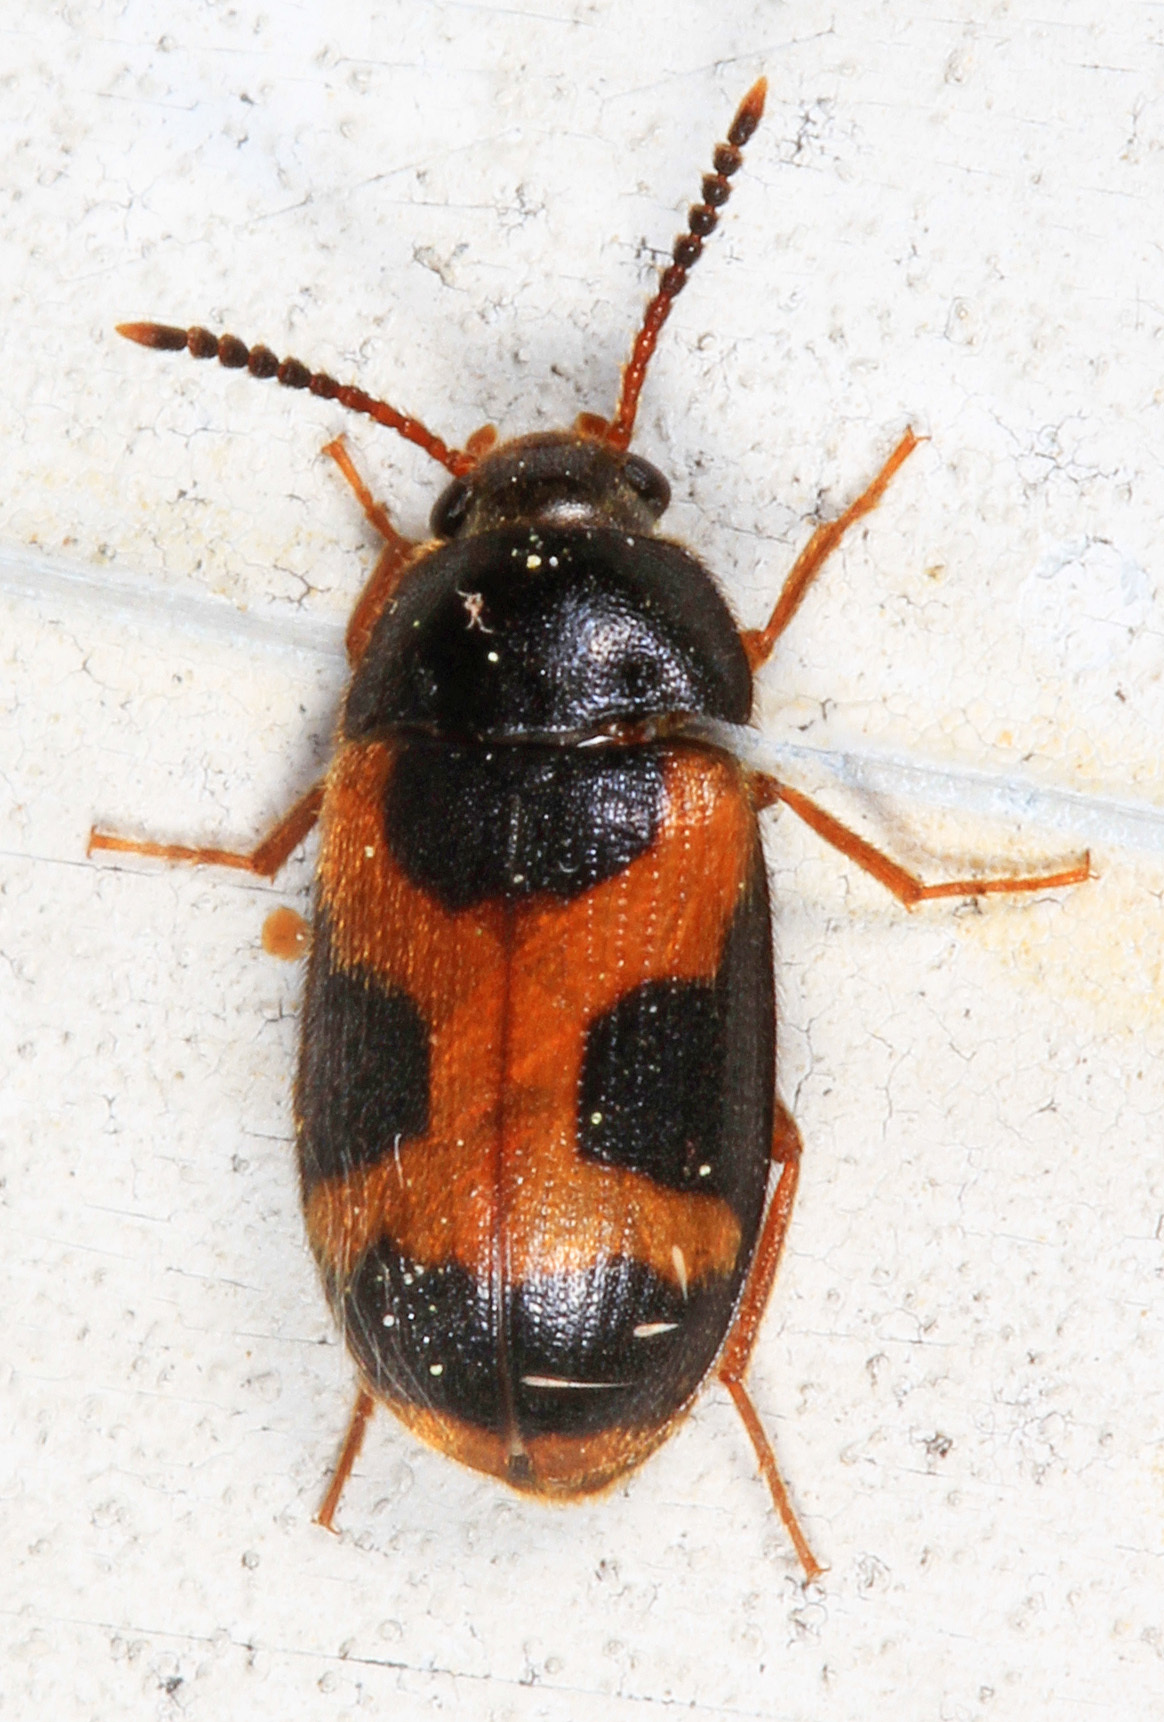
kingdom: Animalia
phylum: Arthropoda
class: Insecta
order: Coleoptera
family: Mycetophagidae
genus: Mycetophagus
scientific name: Mycetophagus punctatus
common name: Hairy fungus beetle
